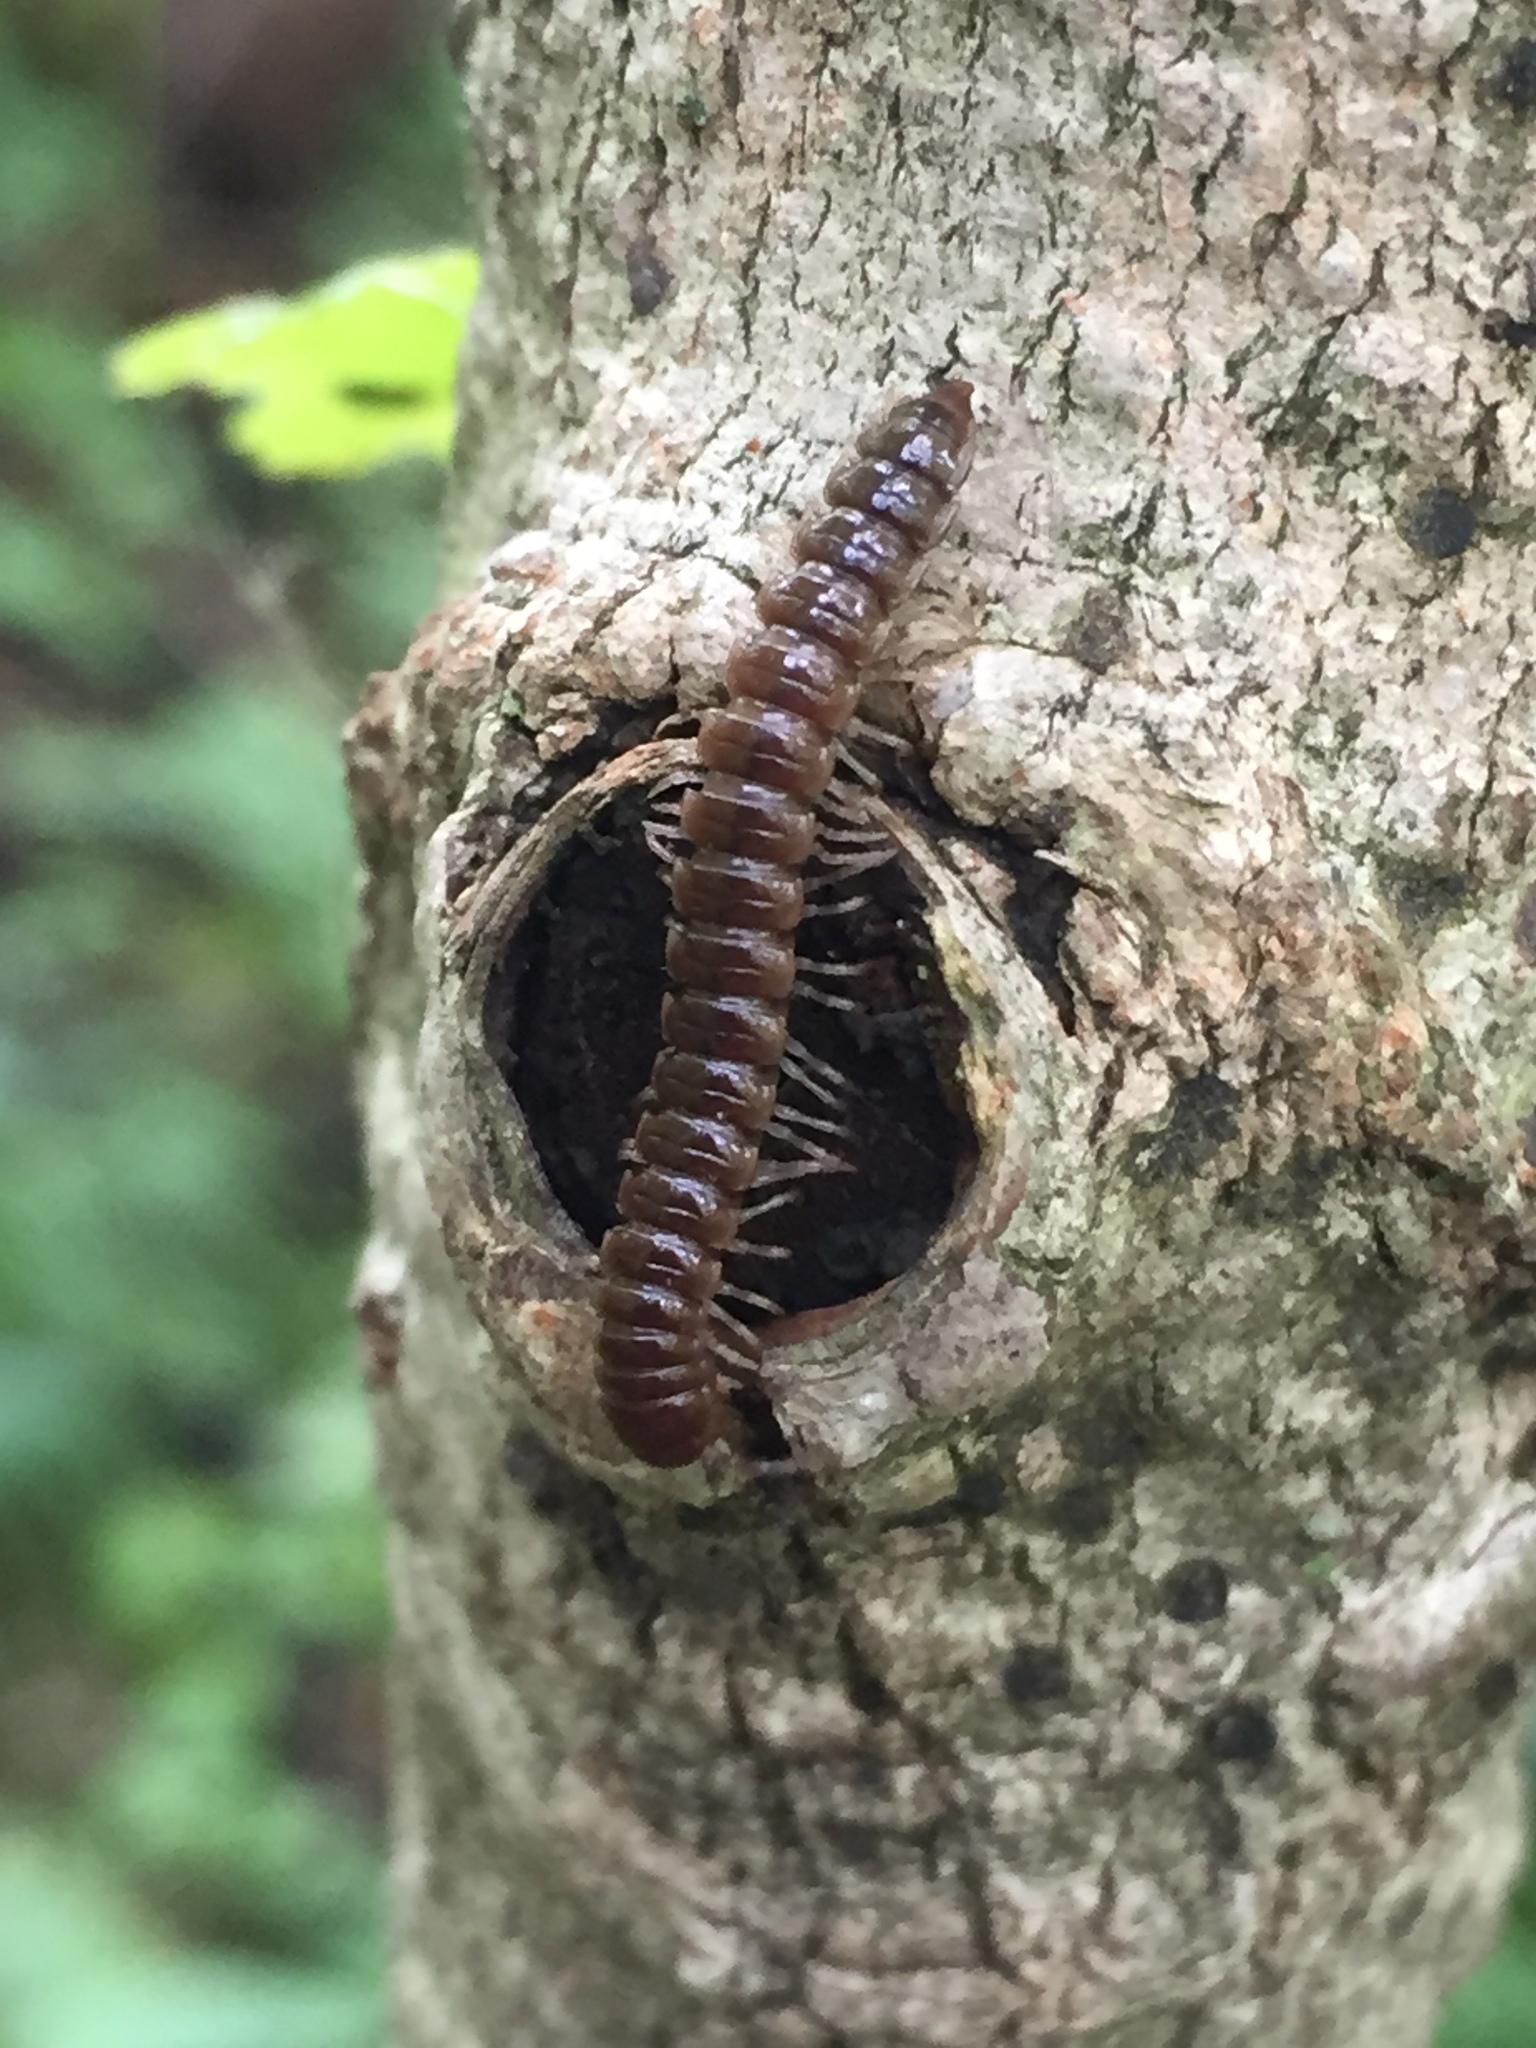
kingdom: Animalia
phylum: Arthropoda
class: Diplopoda
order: Polydesmida
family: Paradoxosomatidae
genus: Oxidus
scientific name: Oxidus gracilis
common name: Greenhouse millipede
